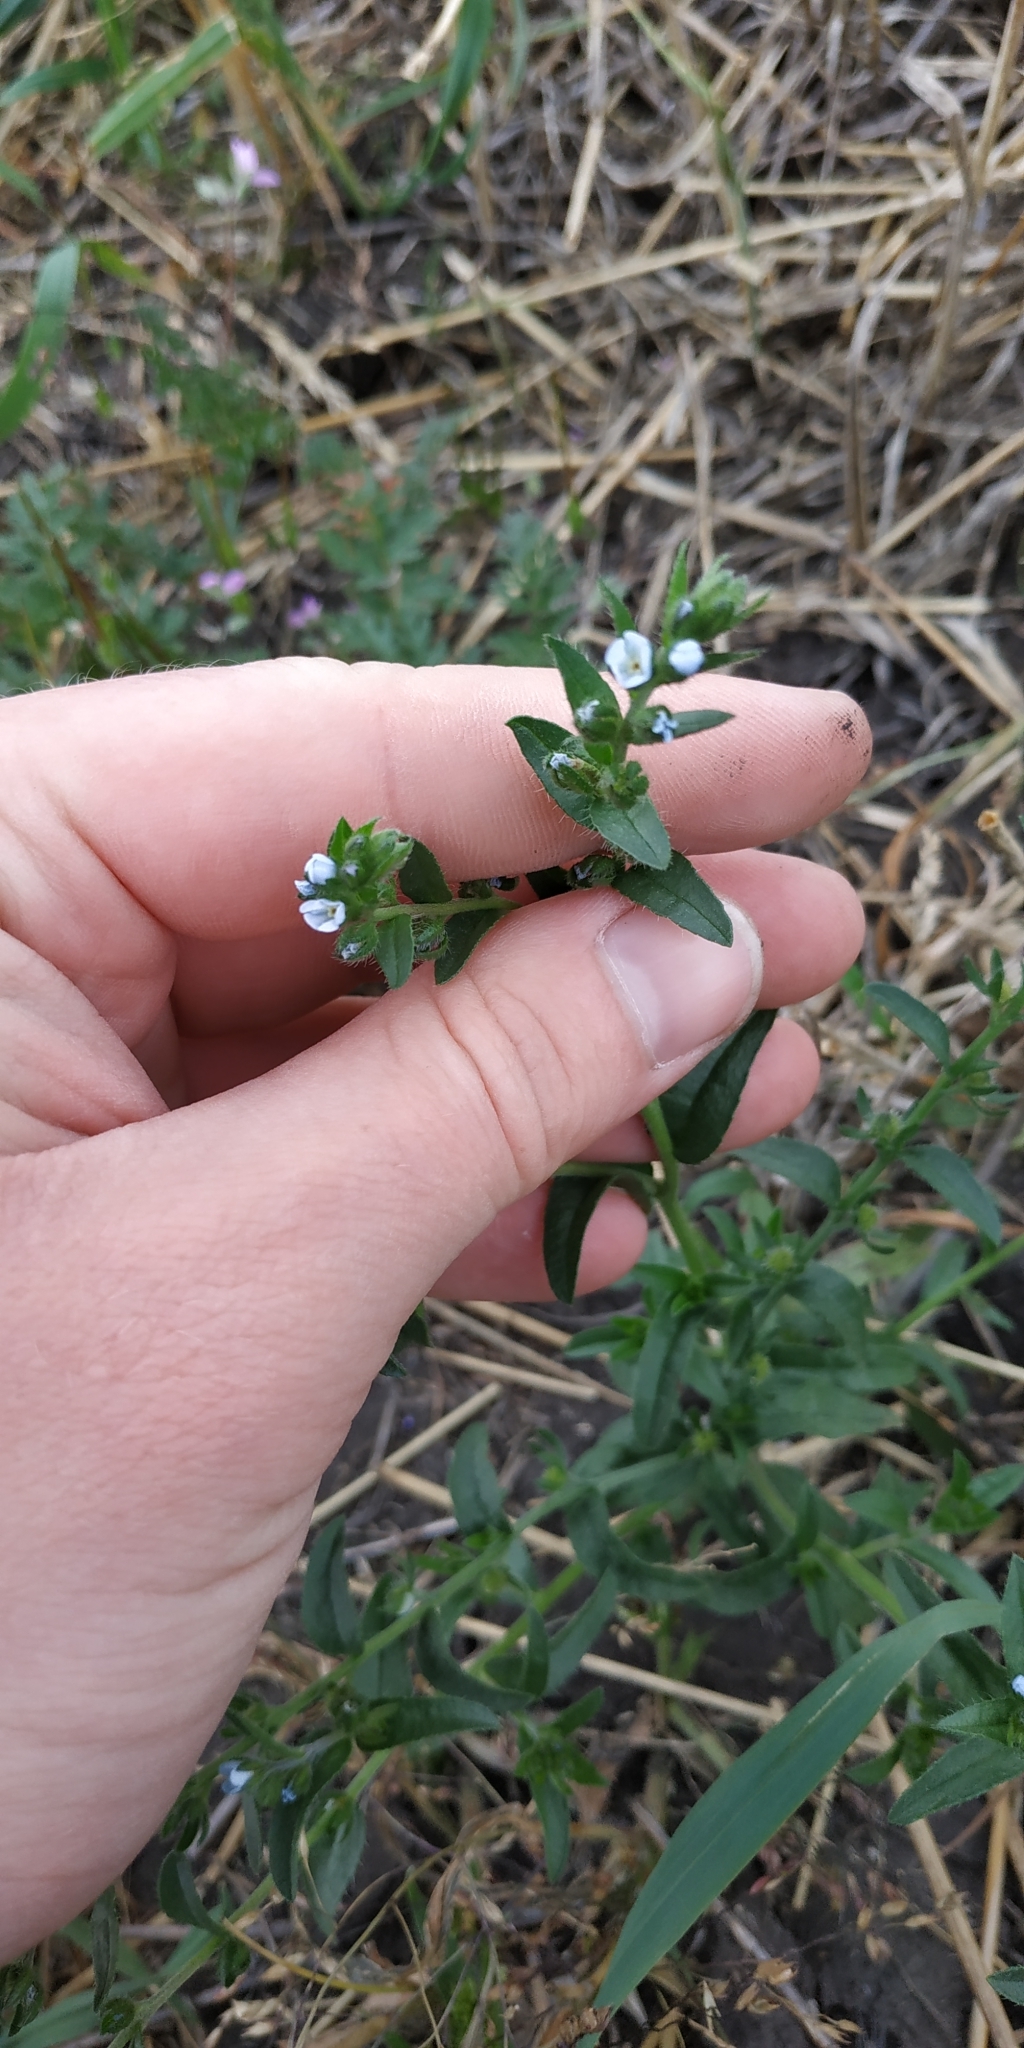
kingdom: Plantae
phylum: Tracheophyta
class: Magnoliopsida
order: Boraginales
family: Boraginaceae
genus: Lappula
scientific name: Lappula squarrosa
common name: European stickseed
